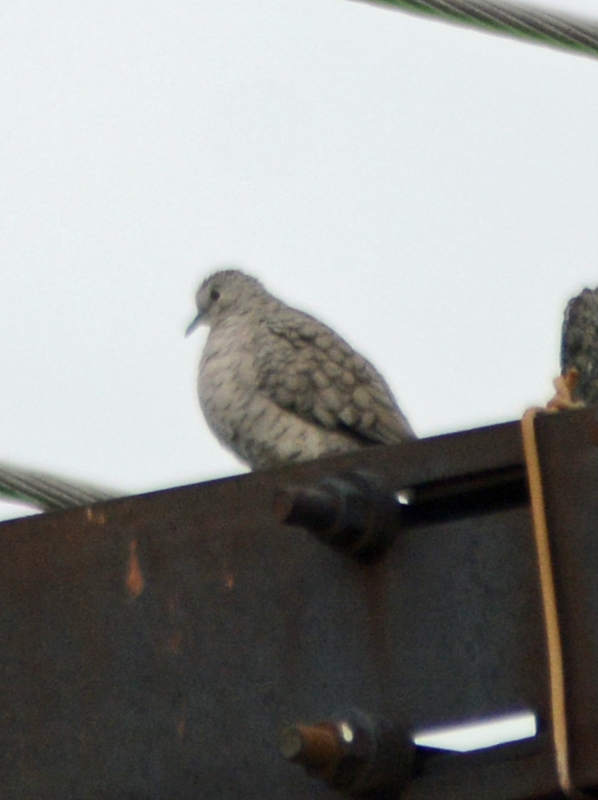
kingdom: Animalia
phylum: Chordata
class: Aves
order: Columbiformes
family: Columbidae
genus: Columbina
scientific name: Columbina inca
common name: Inca dove
